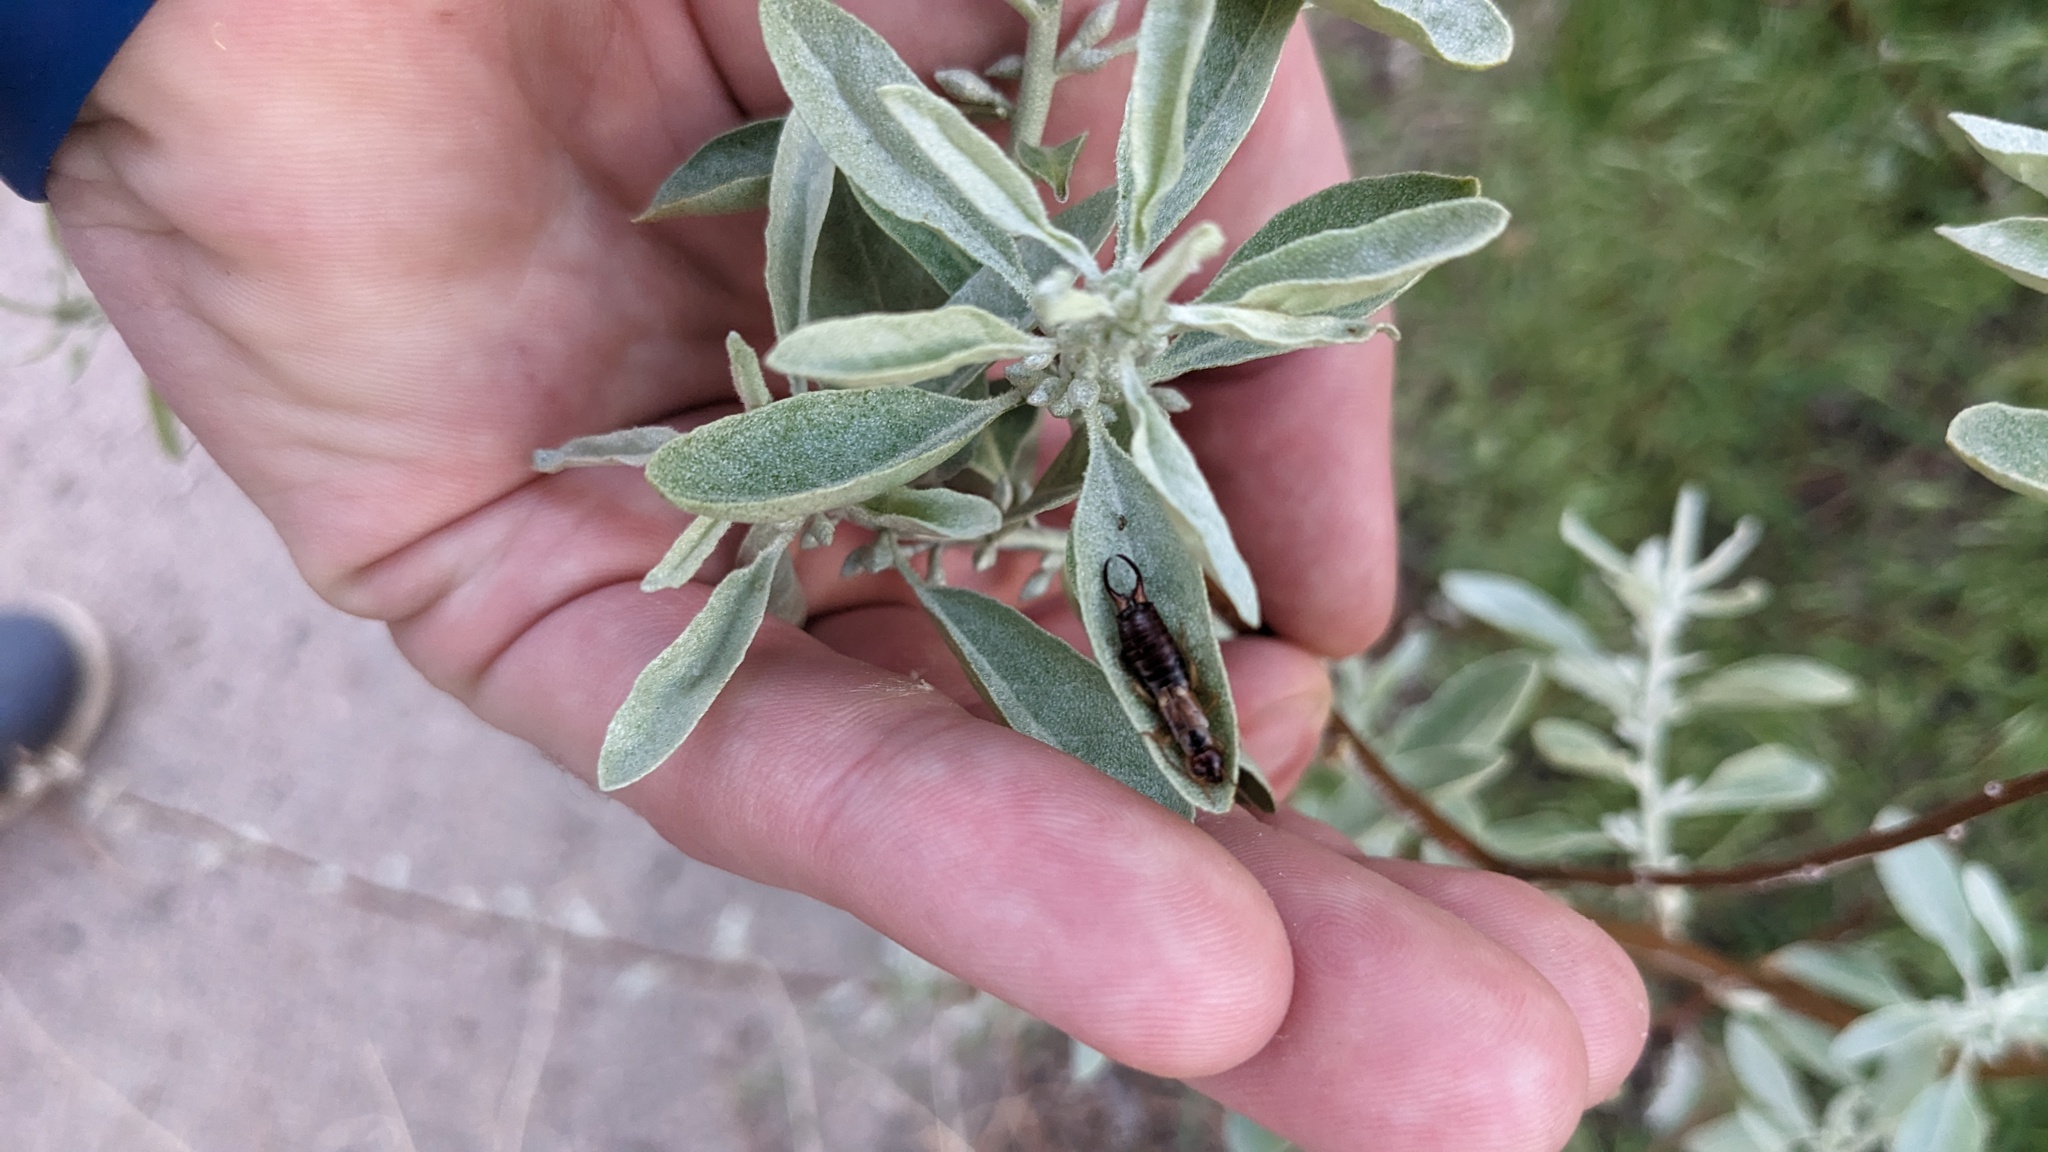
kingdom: Plantae
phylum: Tracheophyta
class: Magnoliopsida
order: Rosales
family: Elaeagnaceae
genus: Elaeagnus
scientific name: Elaeagnus angustifolia
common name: Russian olive
